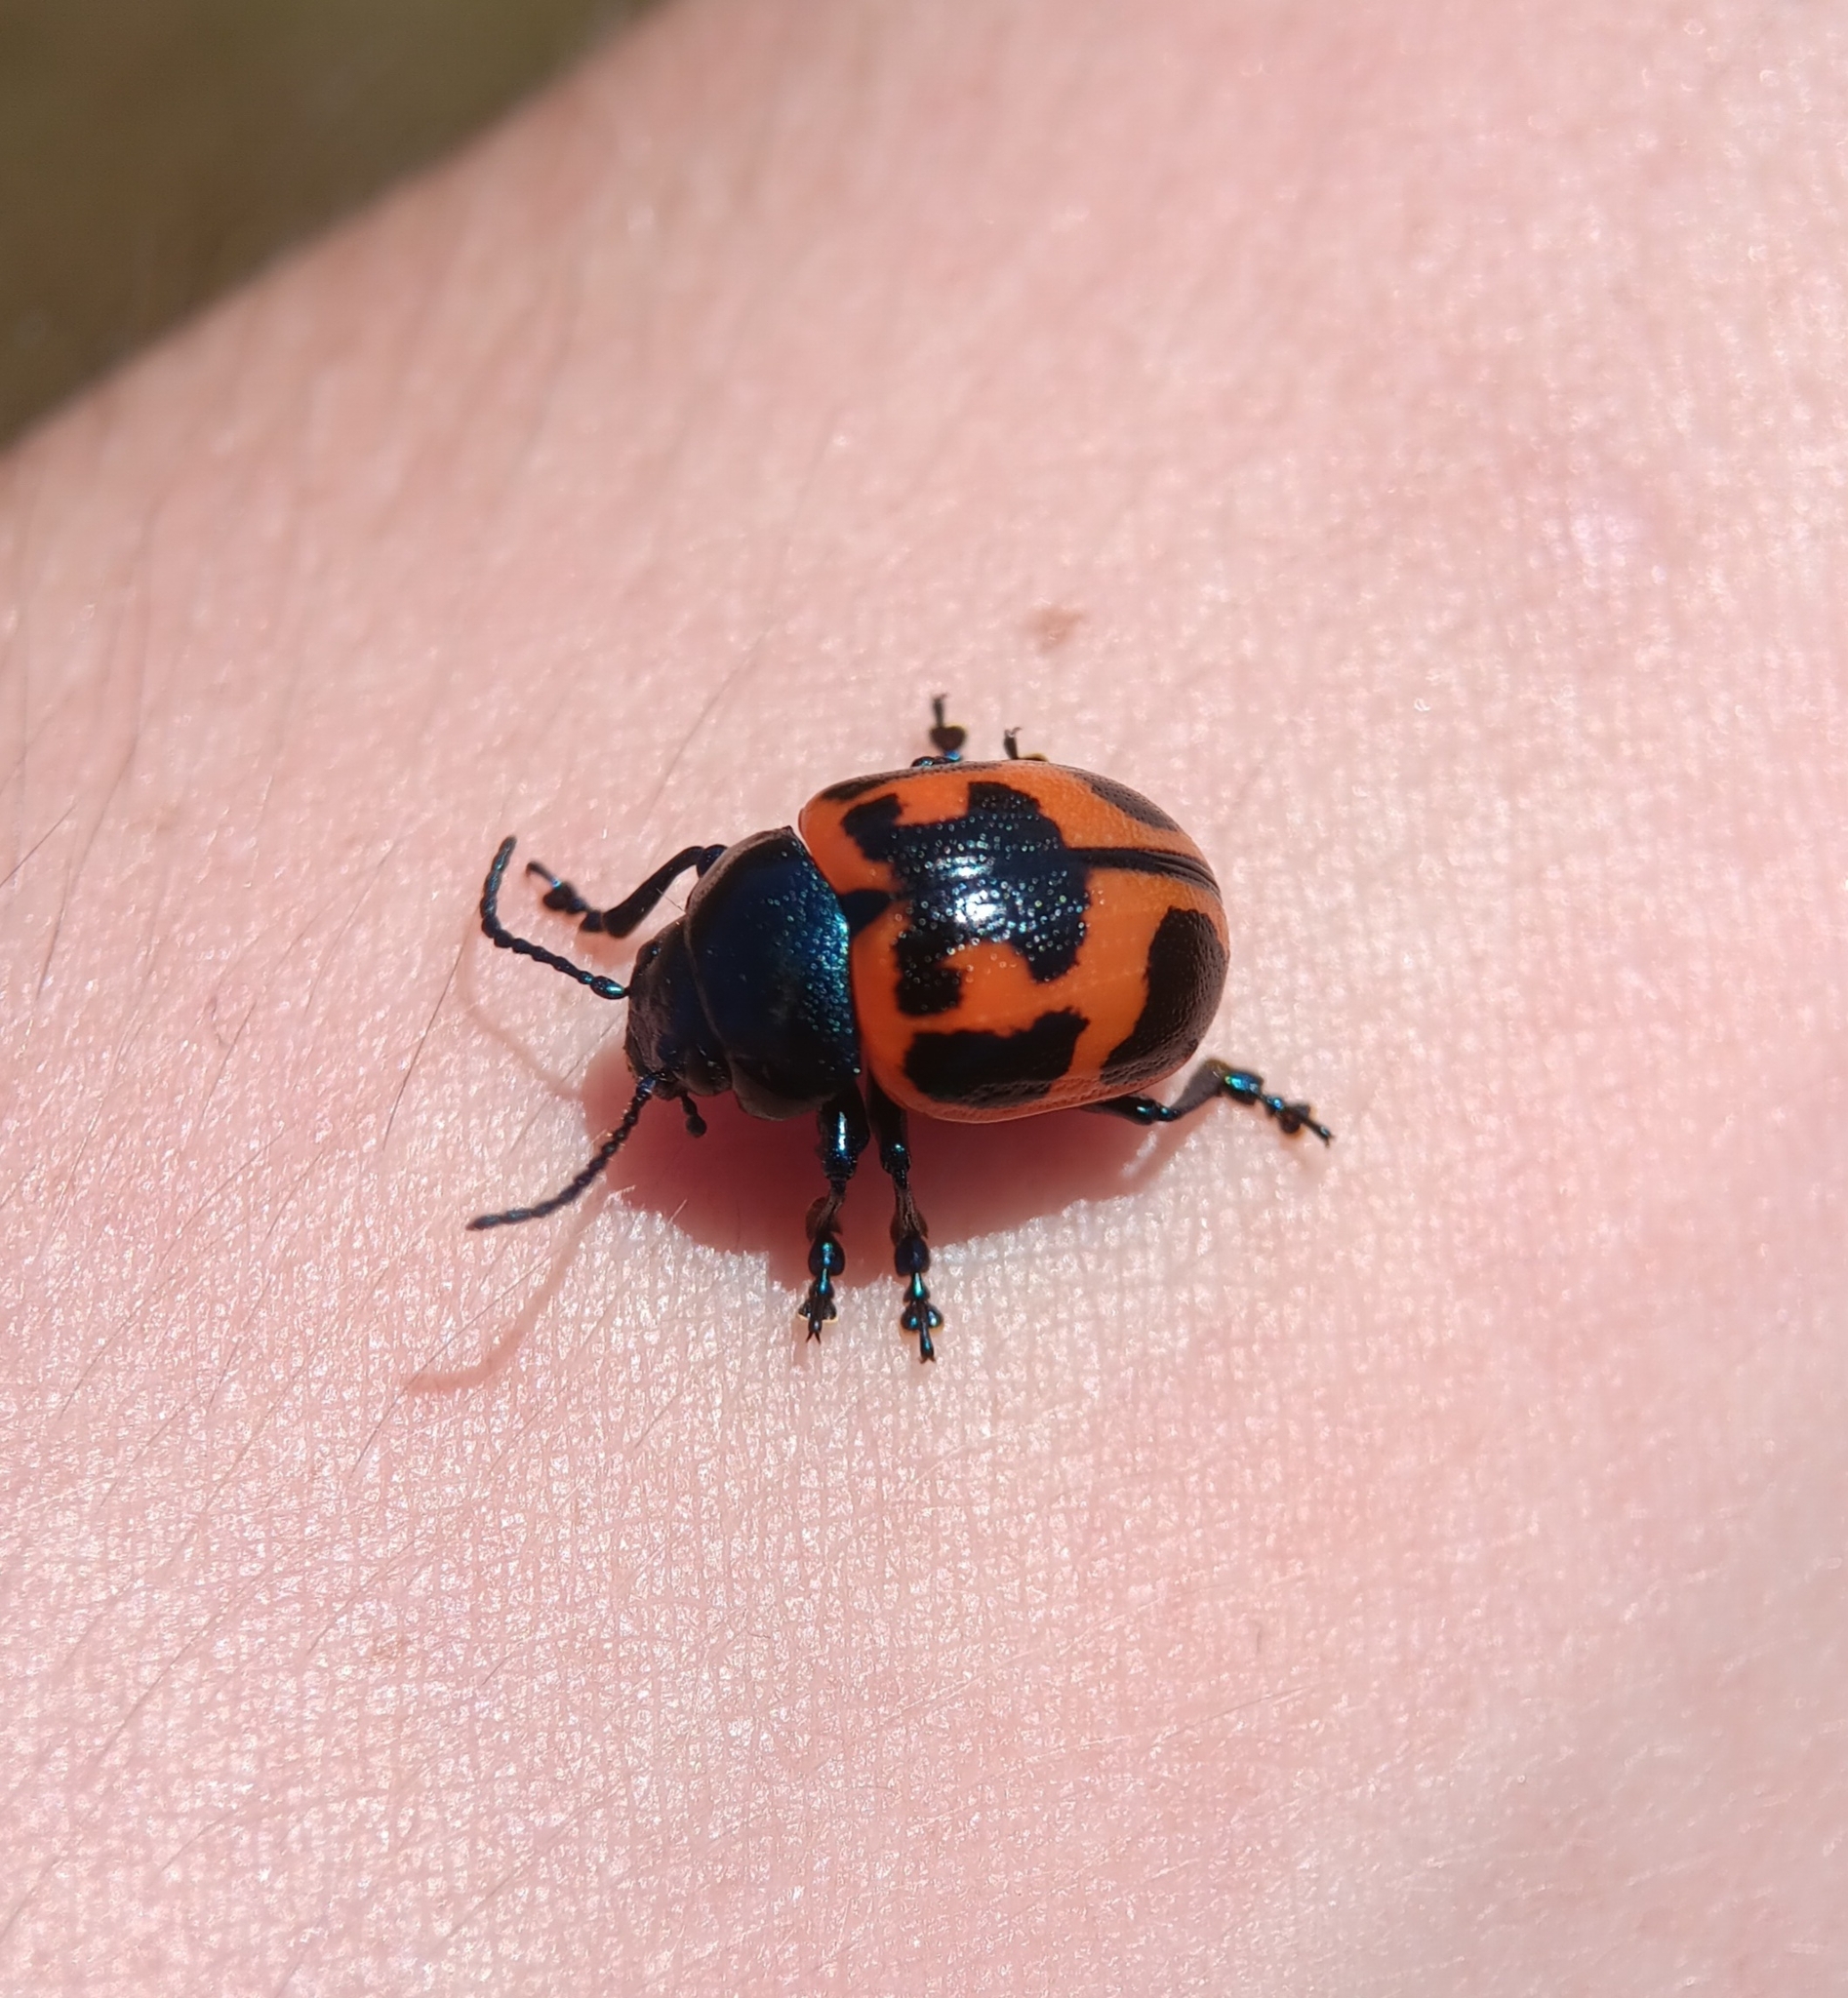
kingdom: Animalia
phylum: Arthropoda
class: Insecta
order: Coleoptera
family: Chrysomelidae
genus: Labidomera
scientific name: Labidomera clivicollis
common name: Swamp milkweed leaf beetle
